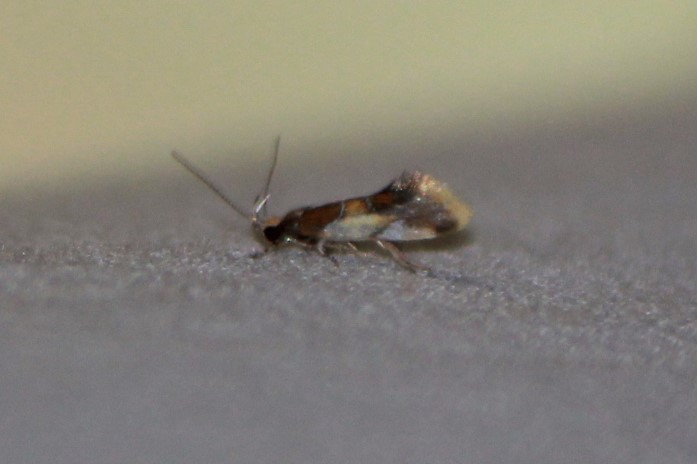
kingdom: Animalia
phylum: Arthropoda
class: Insecta
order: Lepidoptera
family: Oecophoridae
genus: Callima
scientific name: Callima argenticinctella
